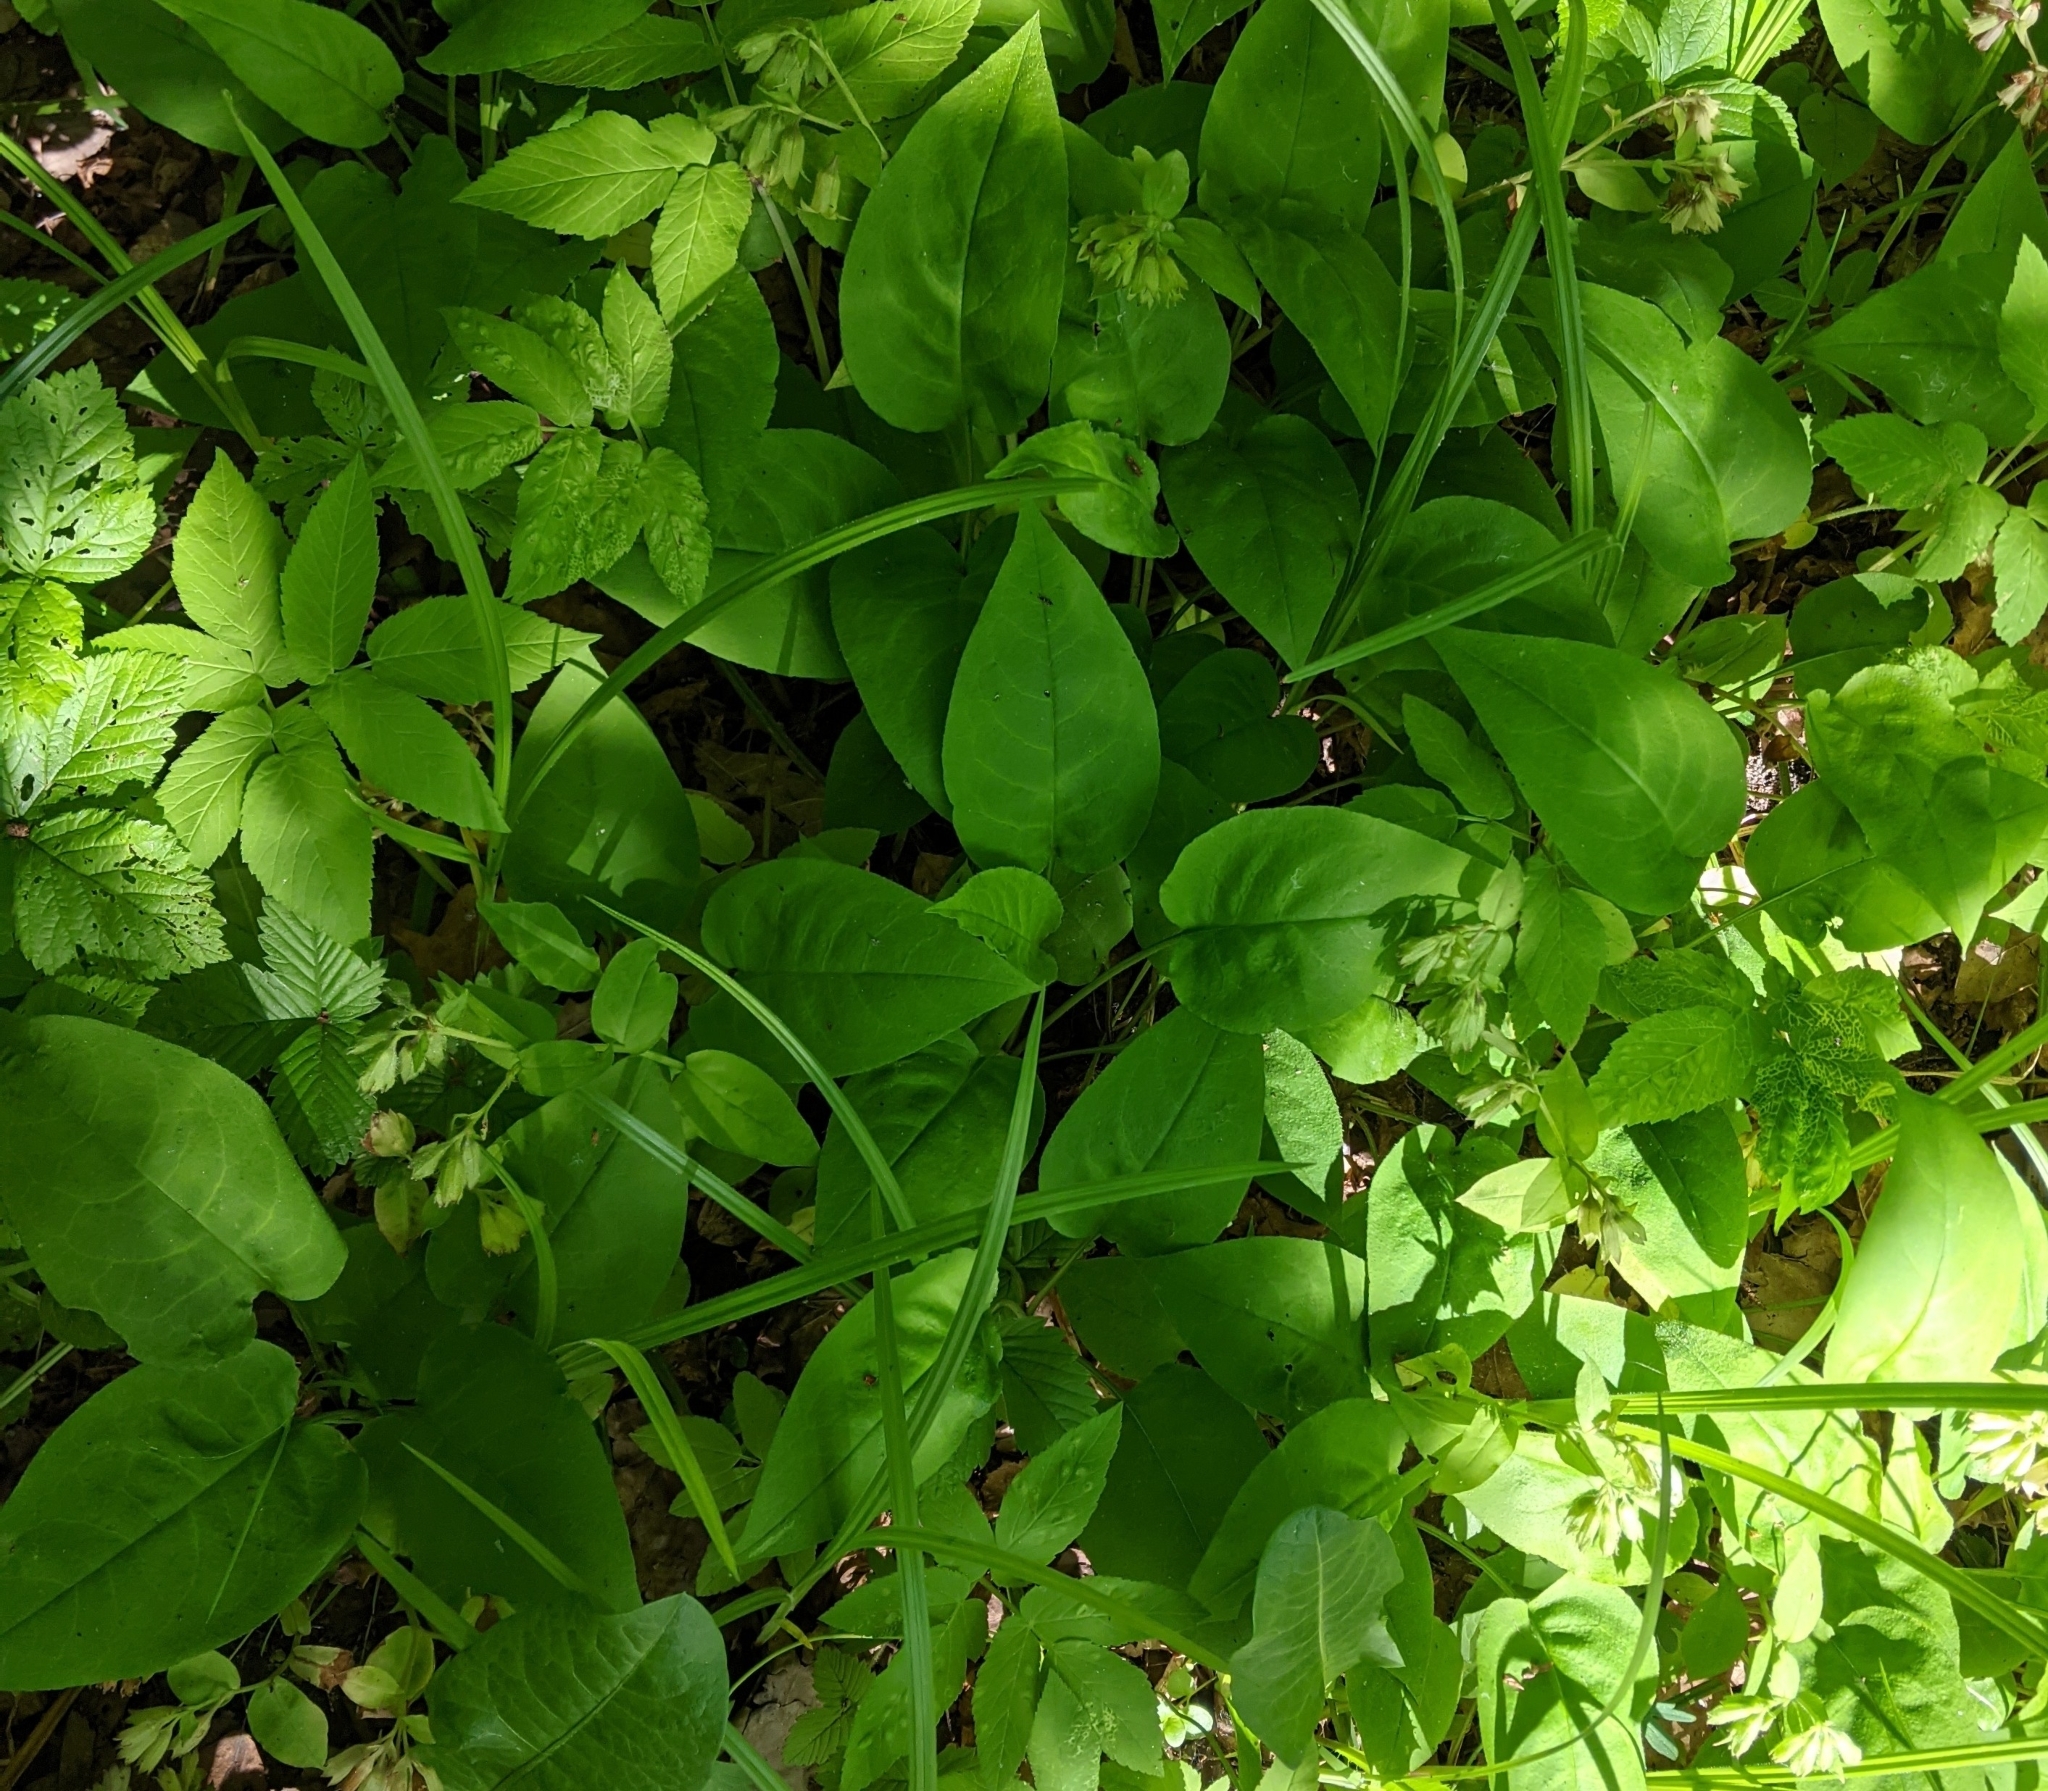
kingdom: Plantae
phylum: Tracheophyta
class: Magnoliopsida
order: Boraginales
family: Boraginaceae
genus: Pulmonaria
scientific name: Pulmonaria obscura
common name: Suffolk lungwort
